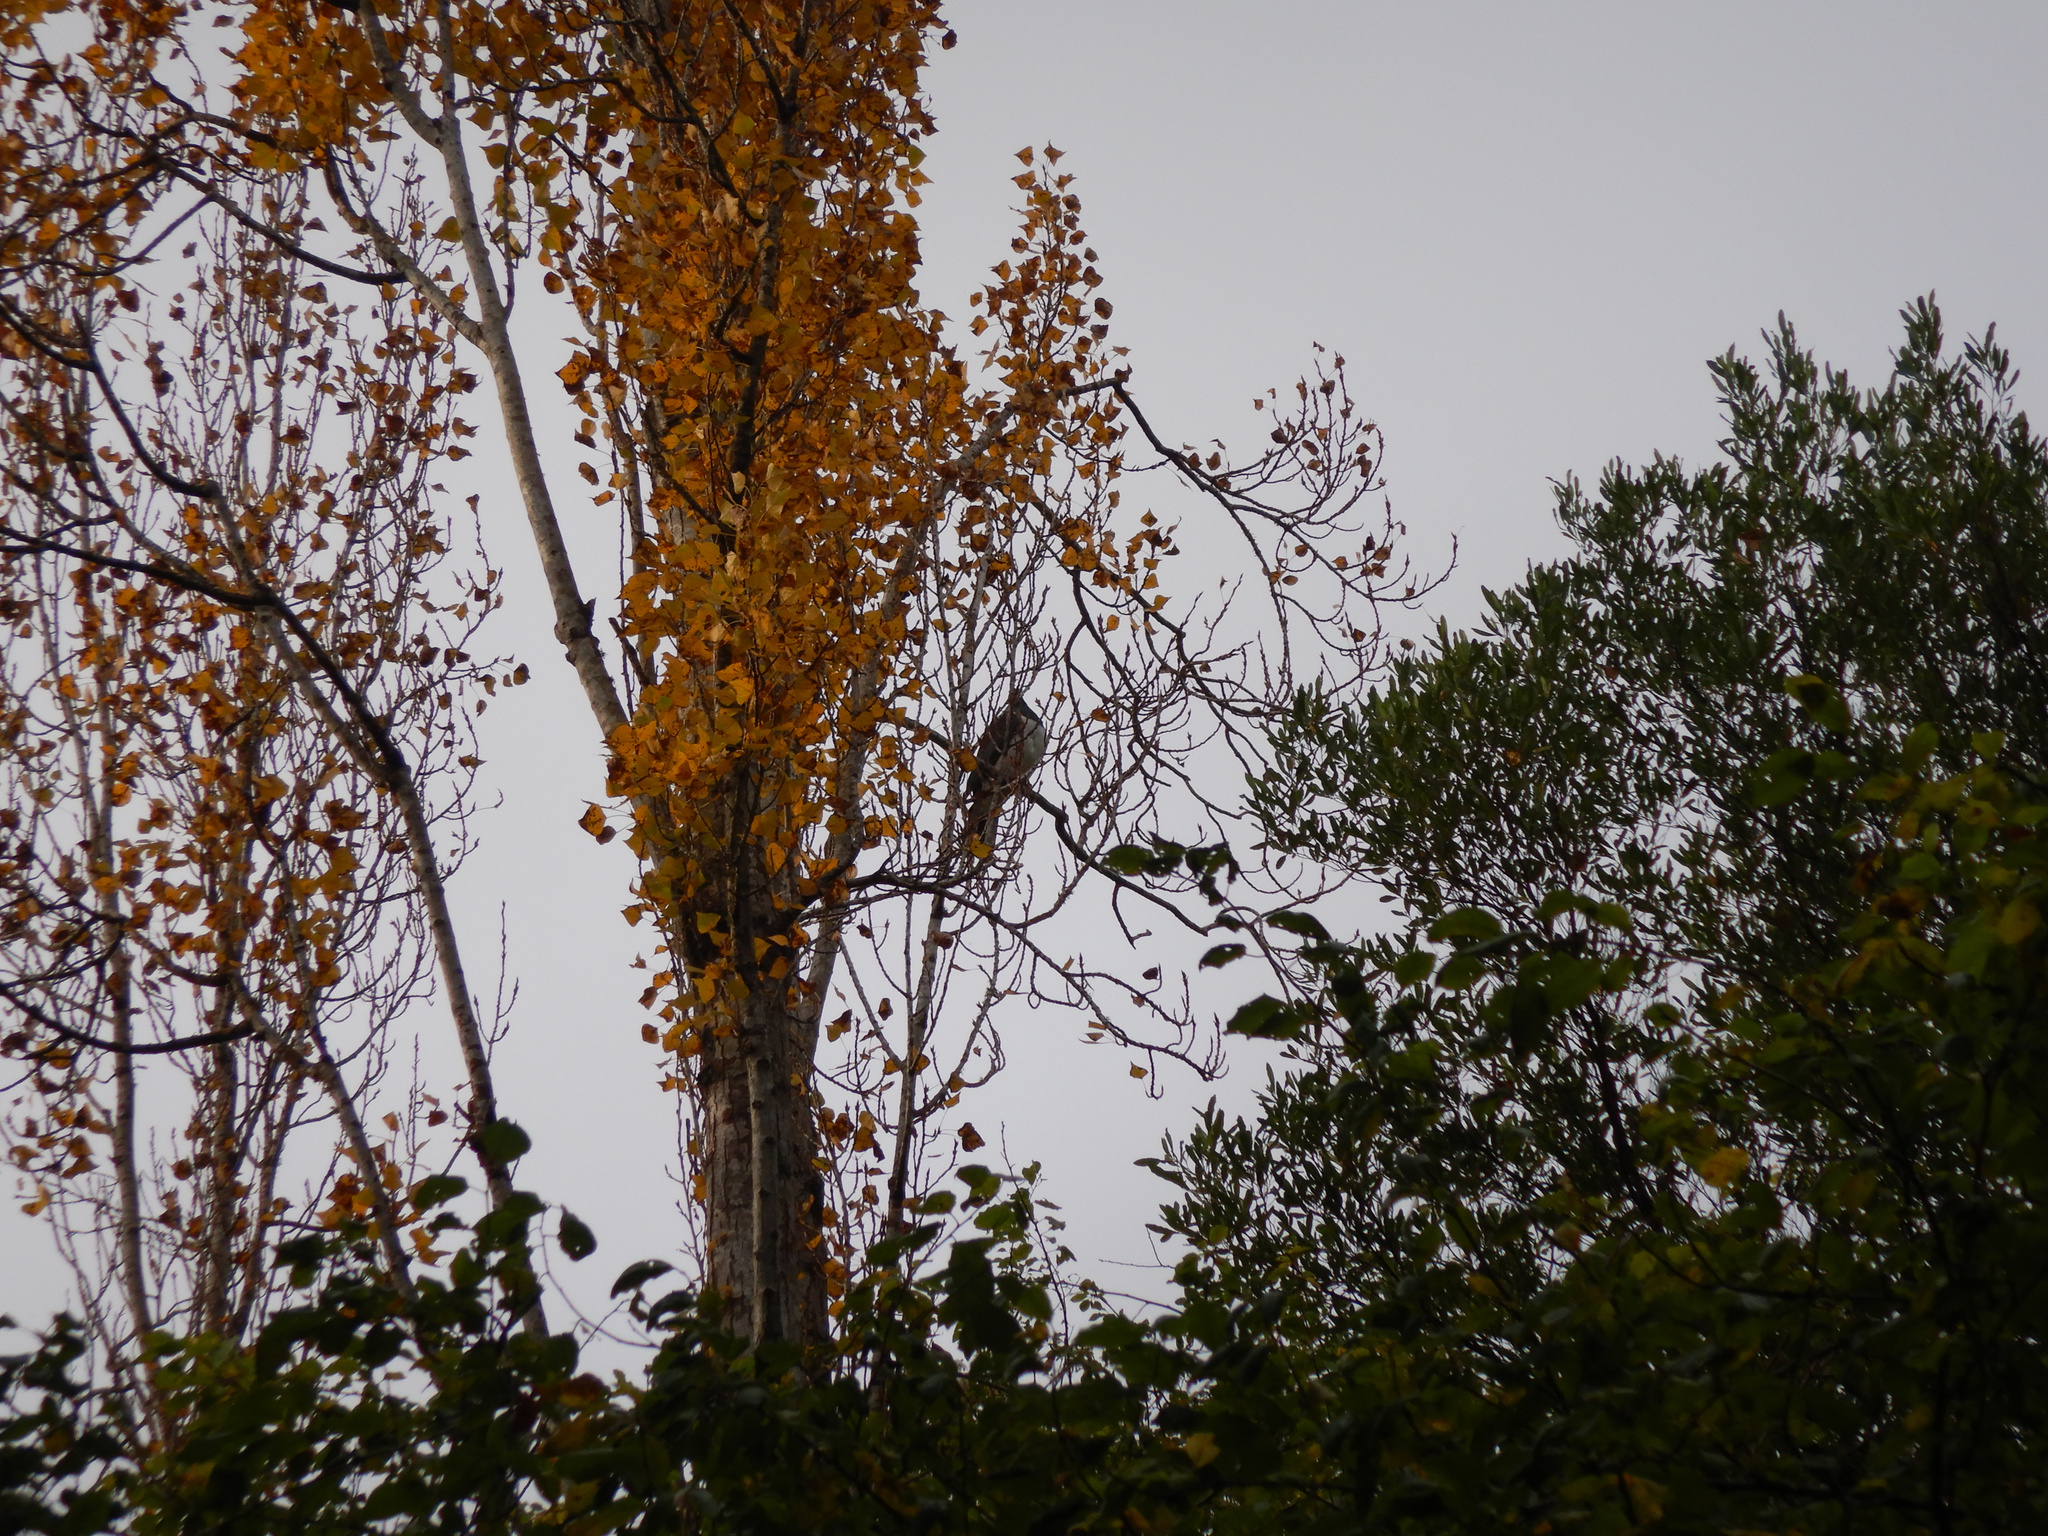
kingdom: Animalia
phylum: Chordata
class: Aves
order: Columbiformes
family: Columbidae
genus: Hemiphaga
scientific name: Hemiphaga novaeseelandiae
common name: New zealand pigeon
